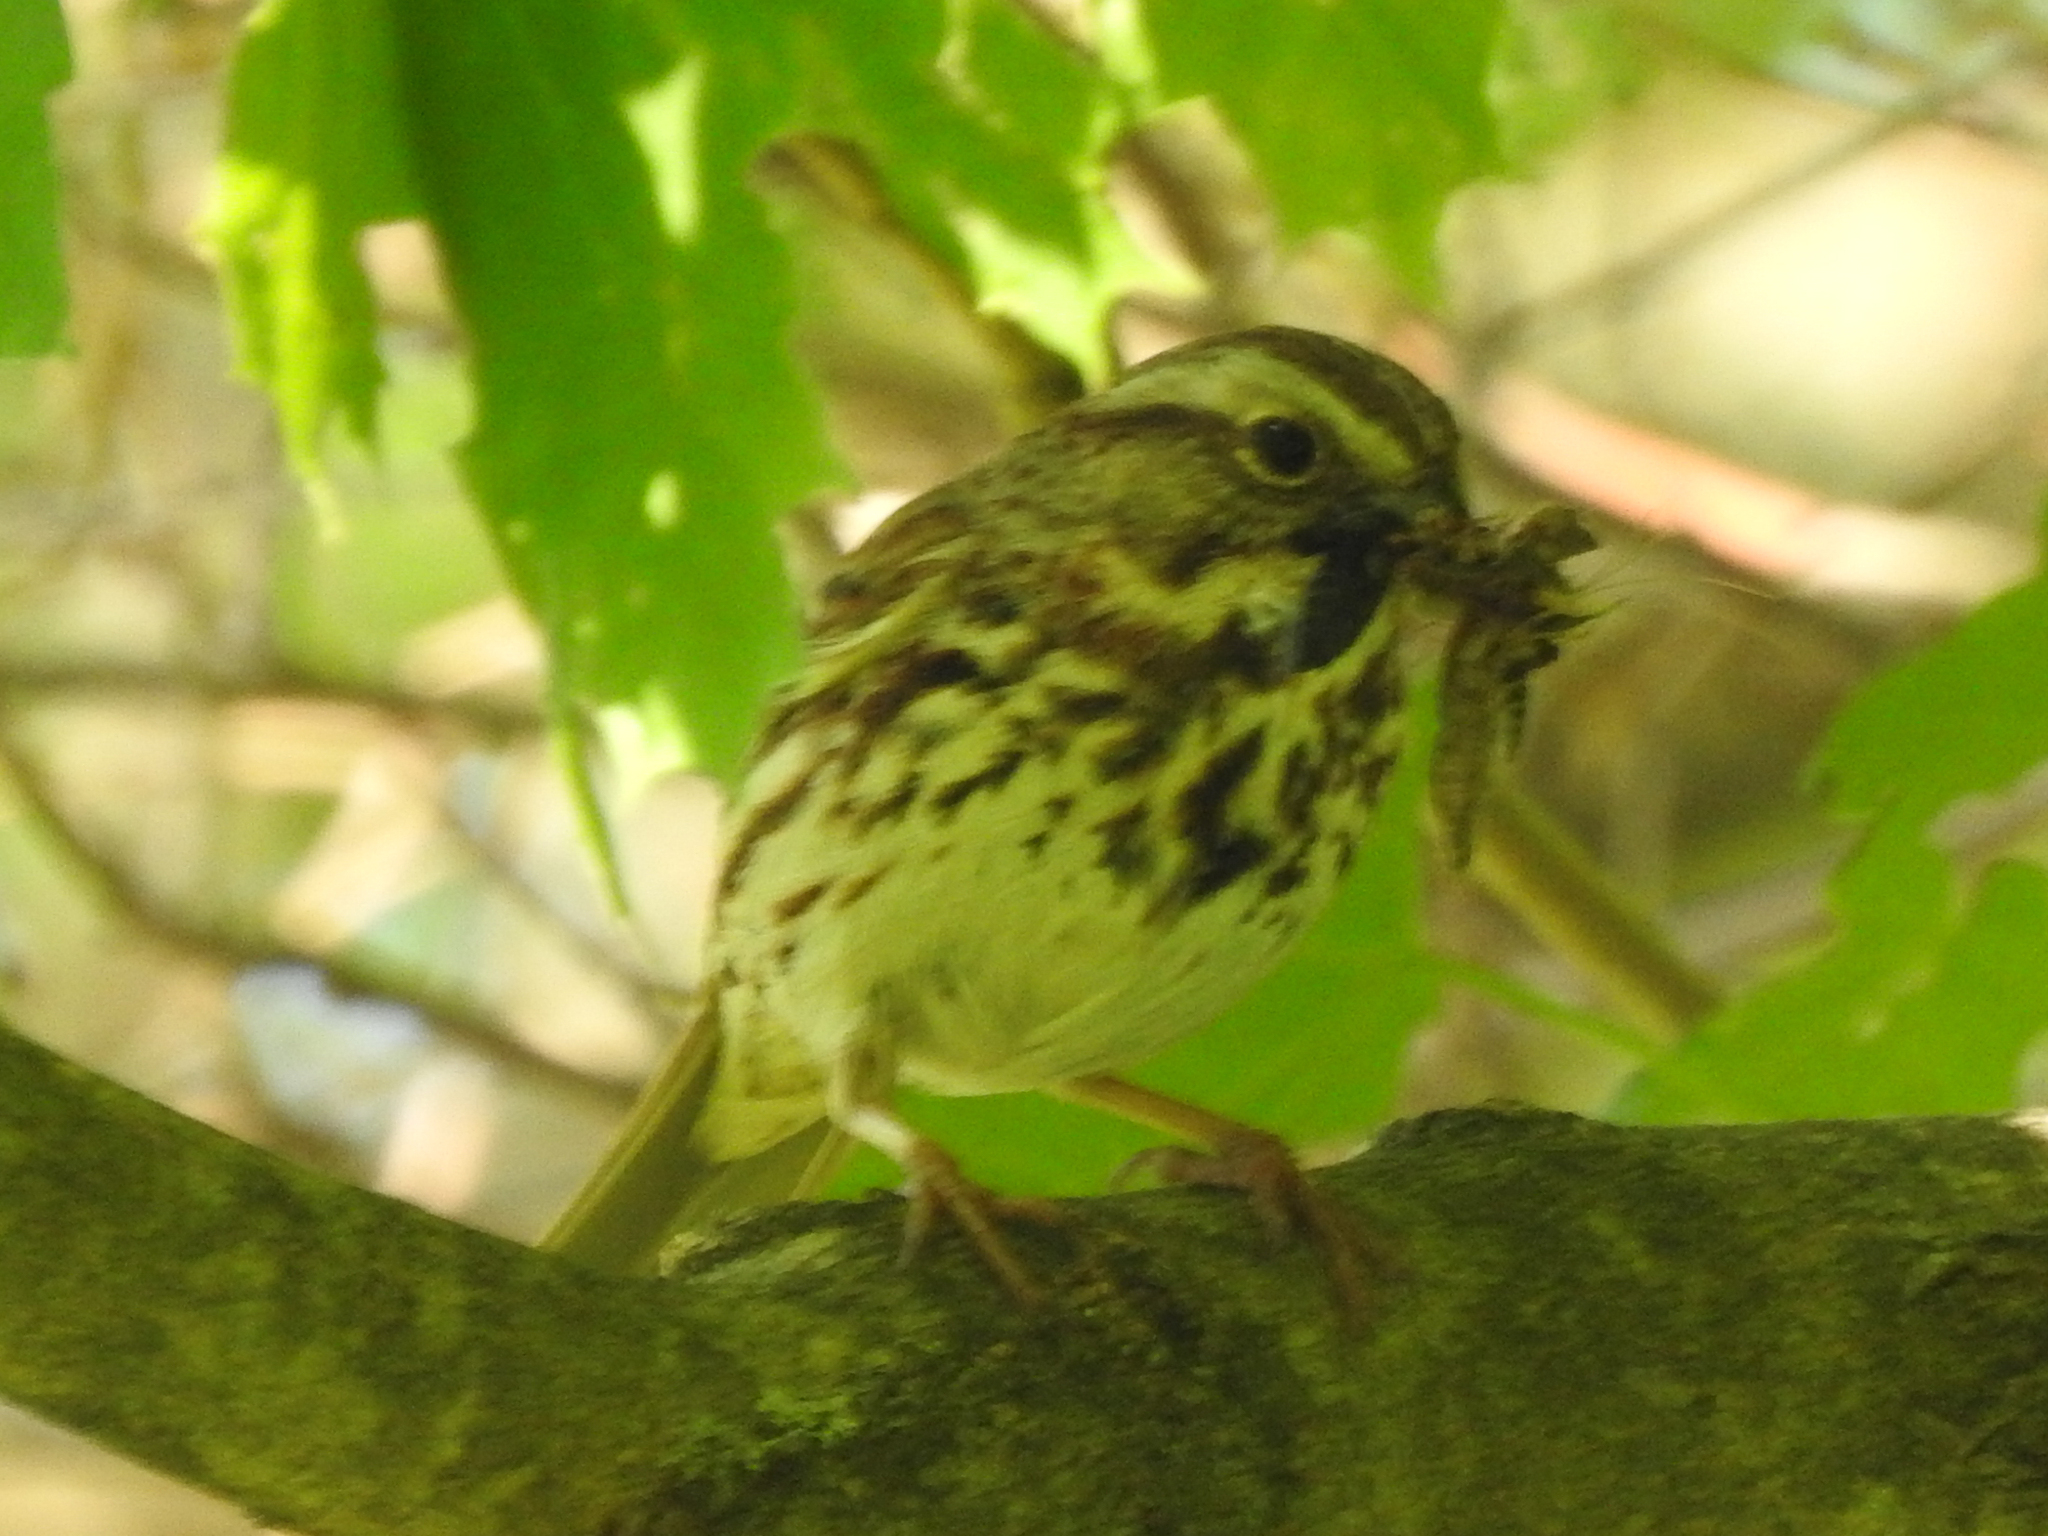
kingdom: Animalia
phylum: Chordata
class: Aves
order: Passeriformes
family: Passerellidae
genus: Melospiza
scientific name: Melospiza melodia
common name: Song sparrow
